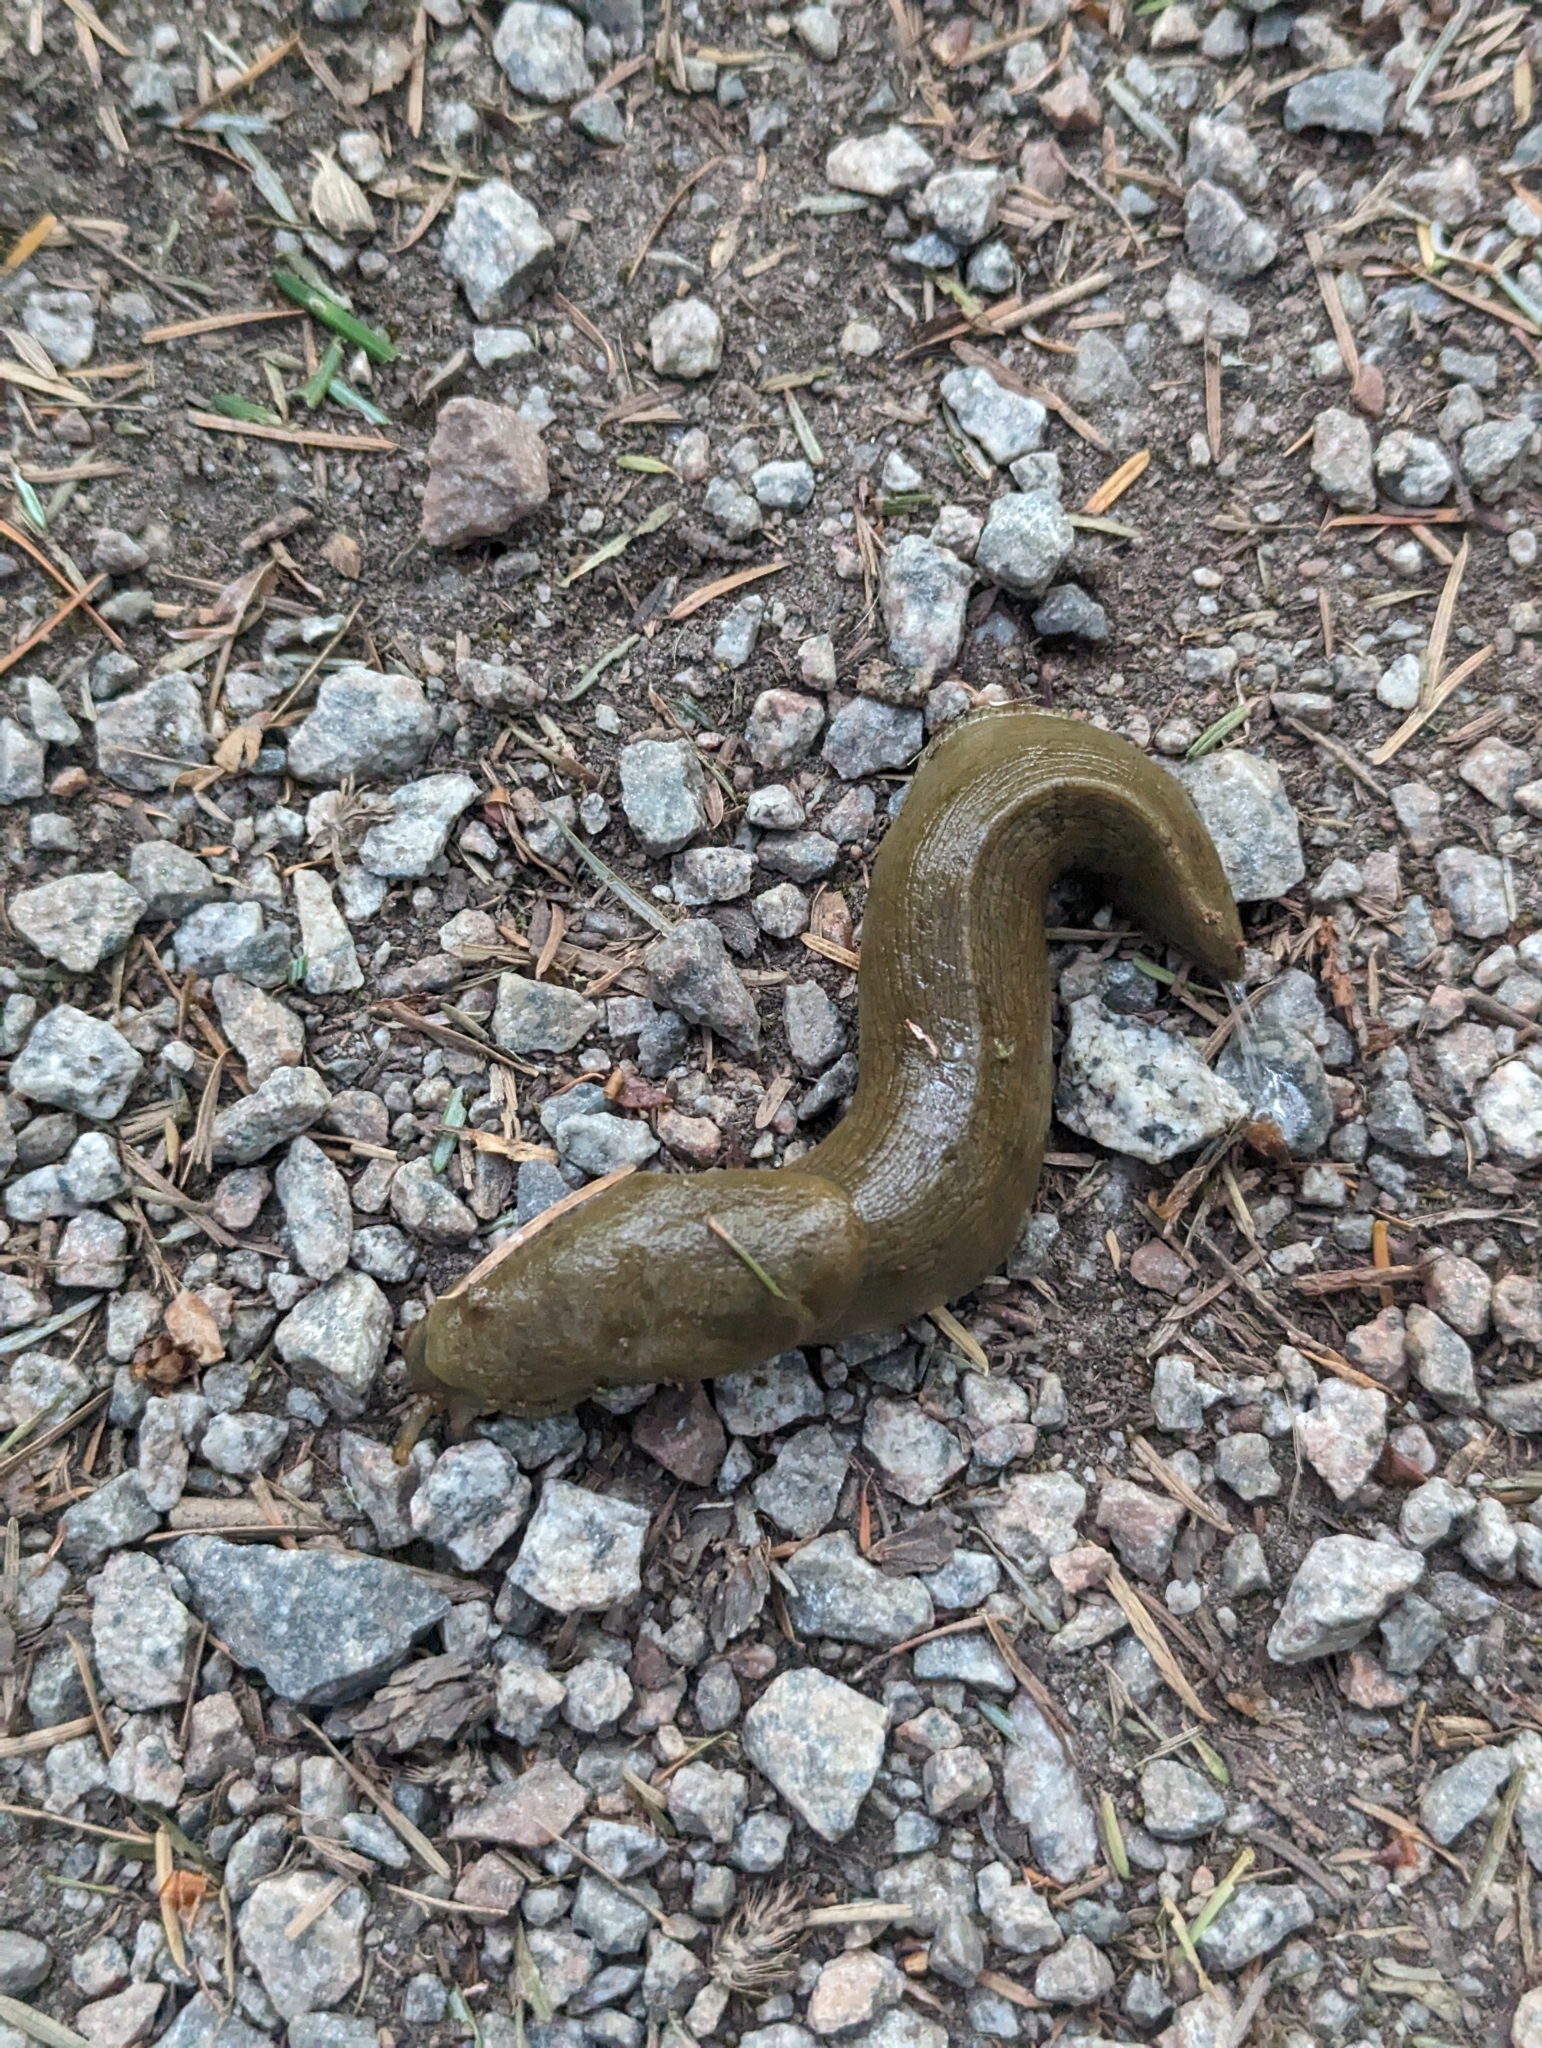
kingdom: Animalia
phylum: Mollusca
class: Gastropoda
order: Stylommatophora
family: Ariolimacidae
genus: Ariolimax
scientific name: Ariolimax columbianus
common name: Pacific banana slug
